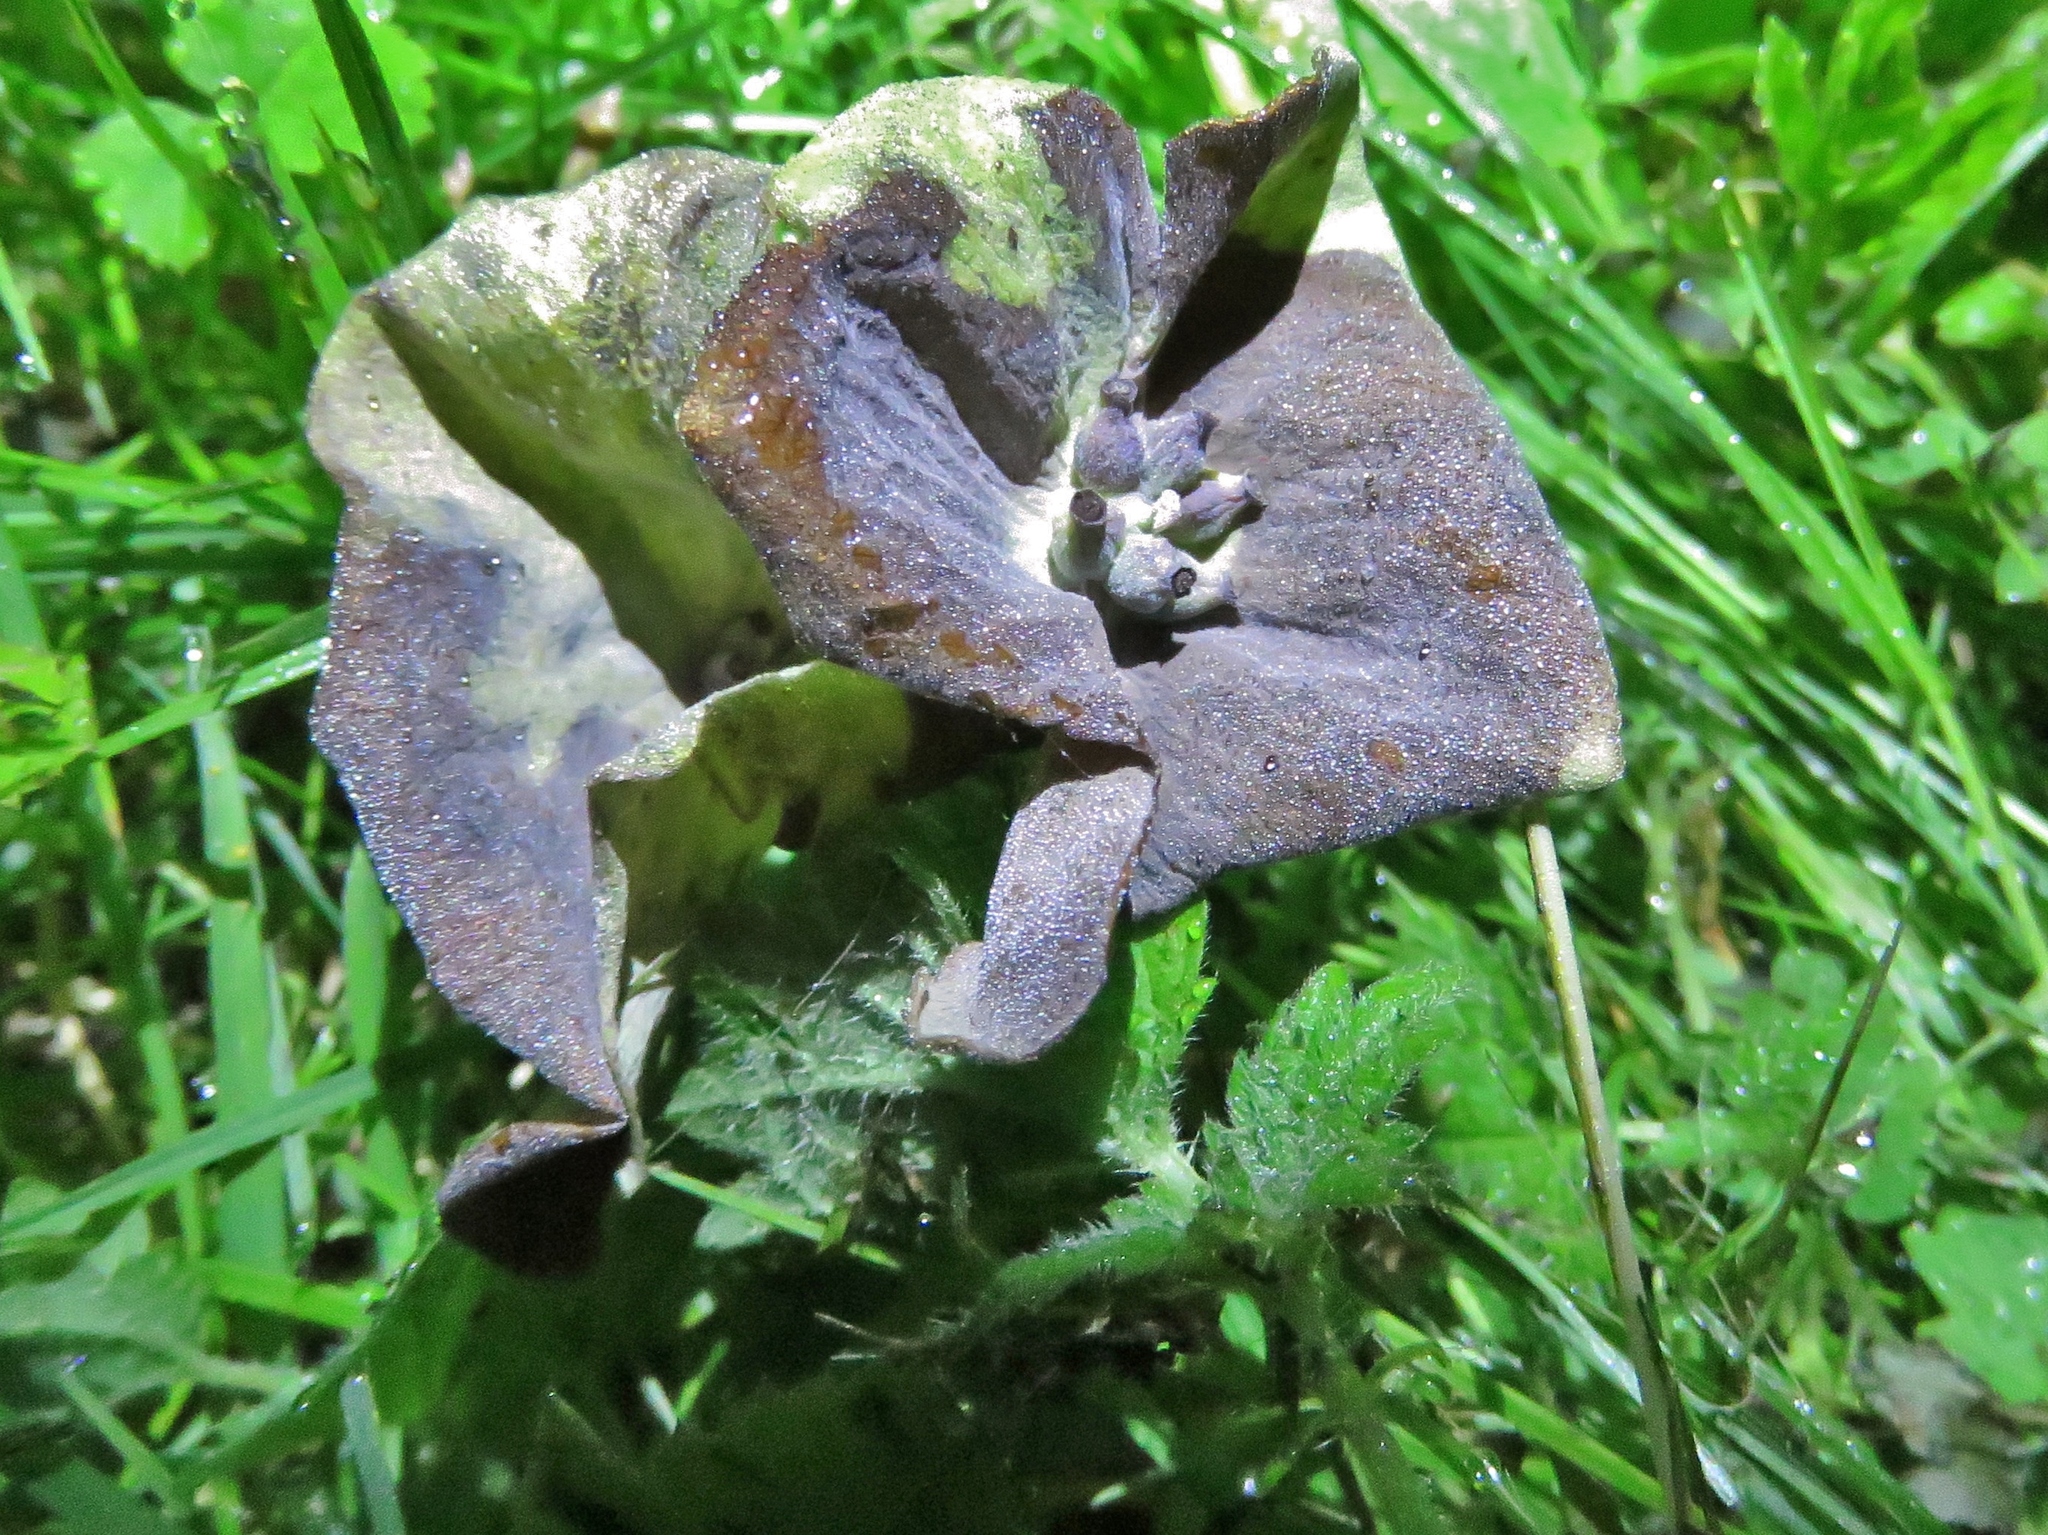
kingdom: Plantae
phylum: Tracheophyta
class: Magnoliopsida
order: Dipsacales
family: Caprifoliaceae
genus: Lonicera
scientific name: Lonicera periclymenum
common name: European honeysuckle
